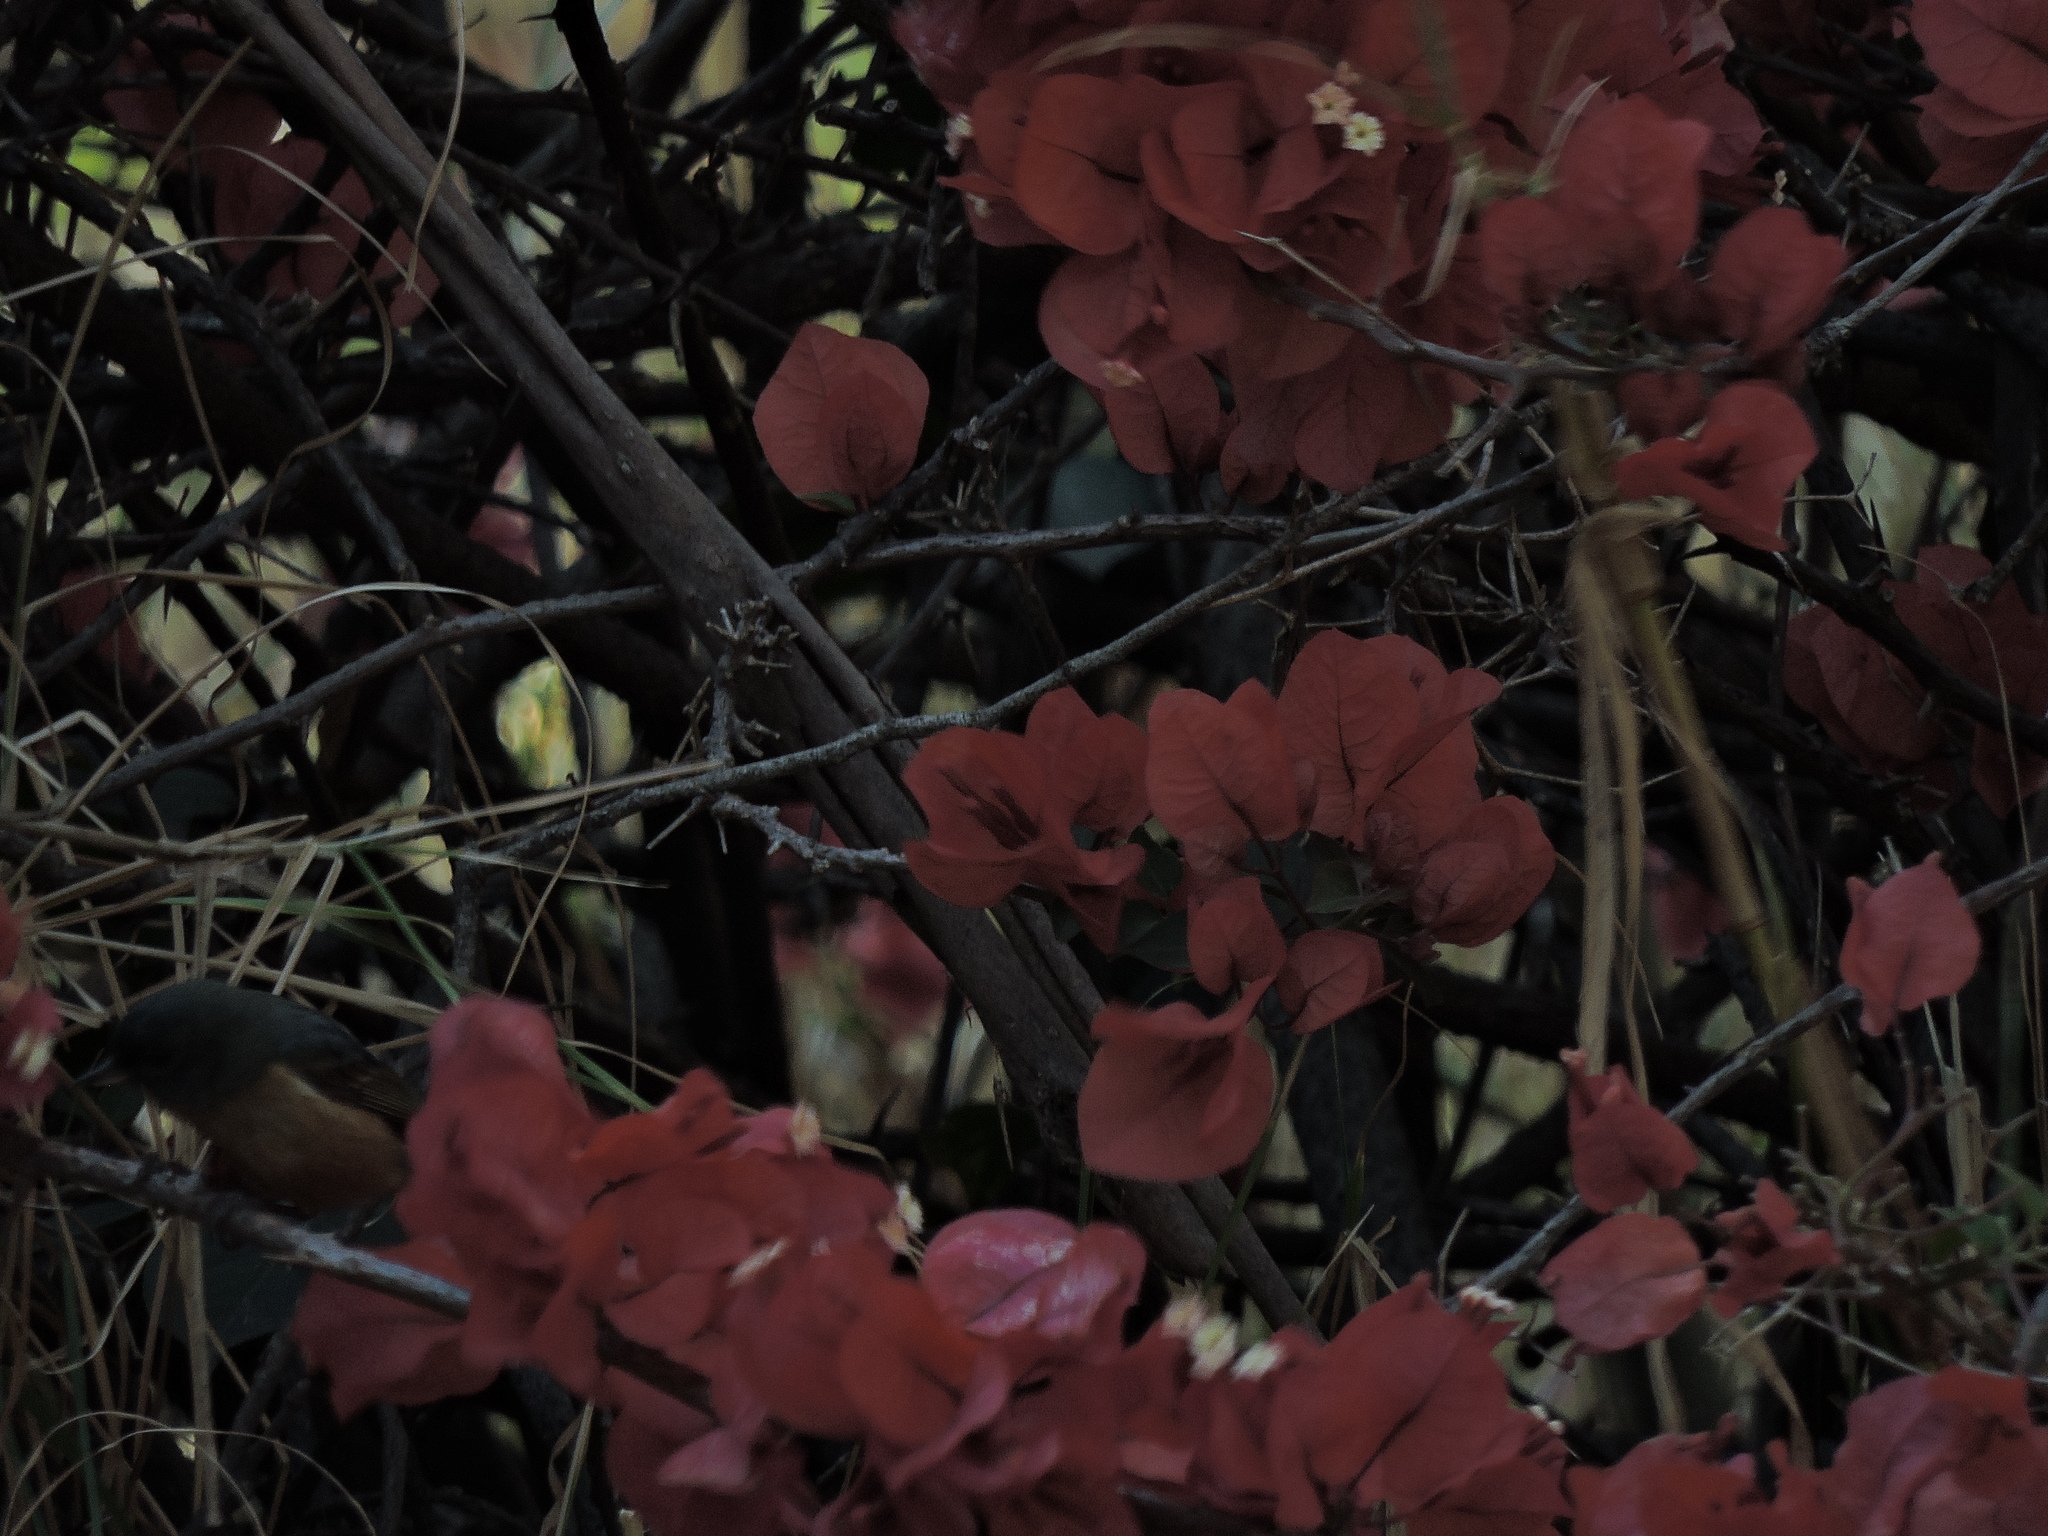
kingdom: Animalia
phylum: Chordata
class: Aves
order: Passeriformes
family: Thraupidae
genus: Diglossa
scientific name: Diglossa baritula
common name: Cinnamon-bellied flowerpiercer
